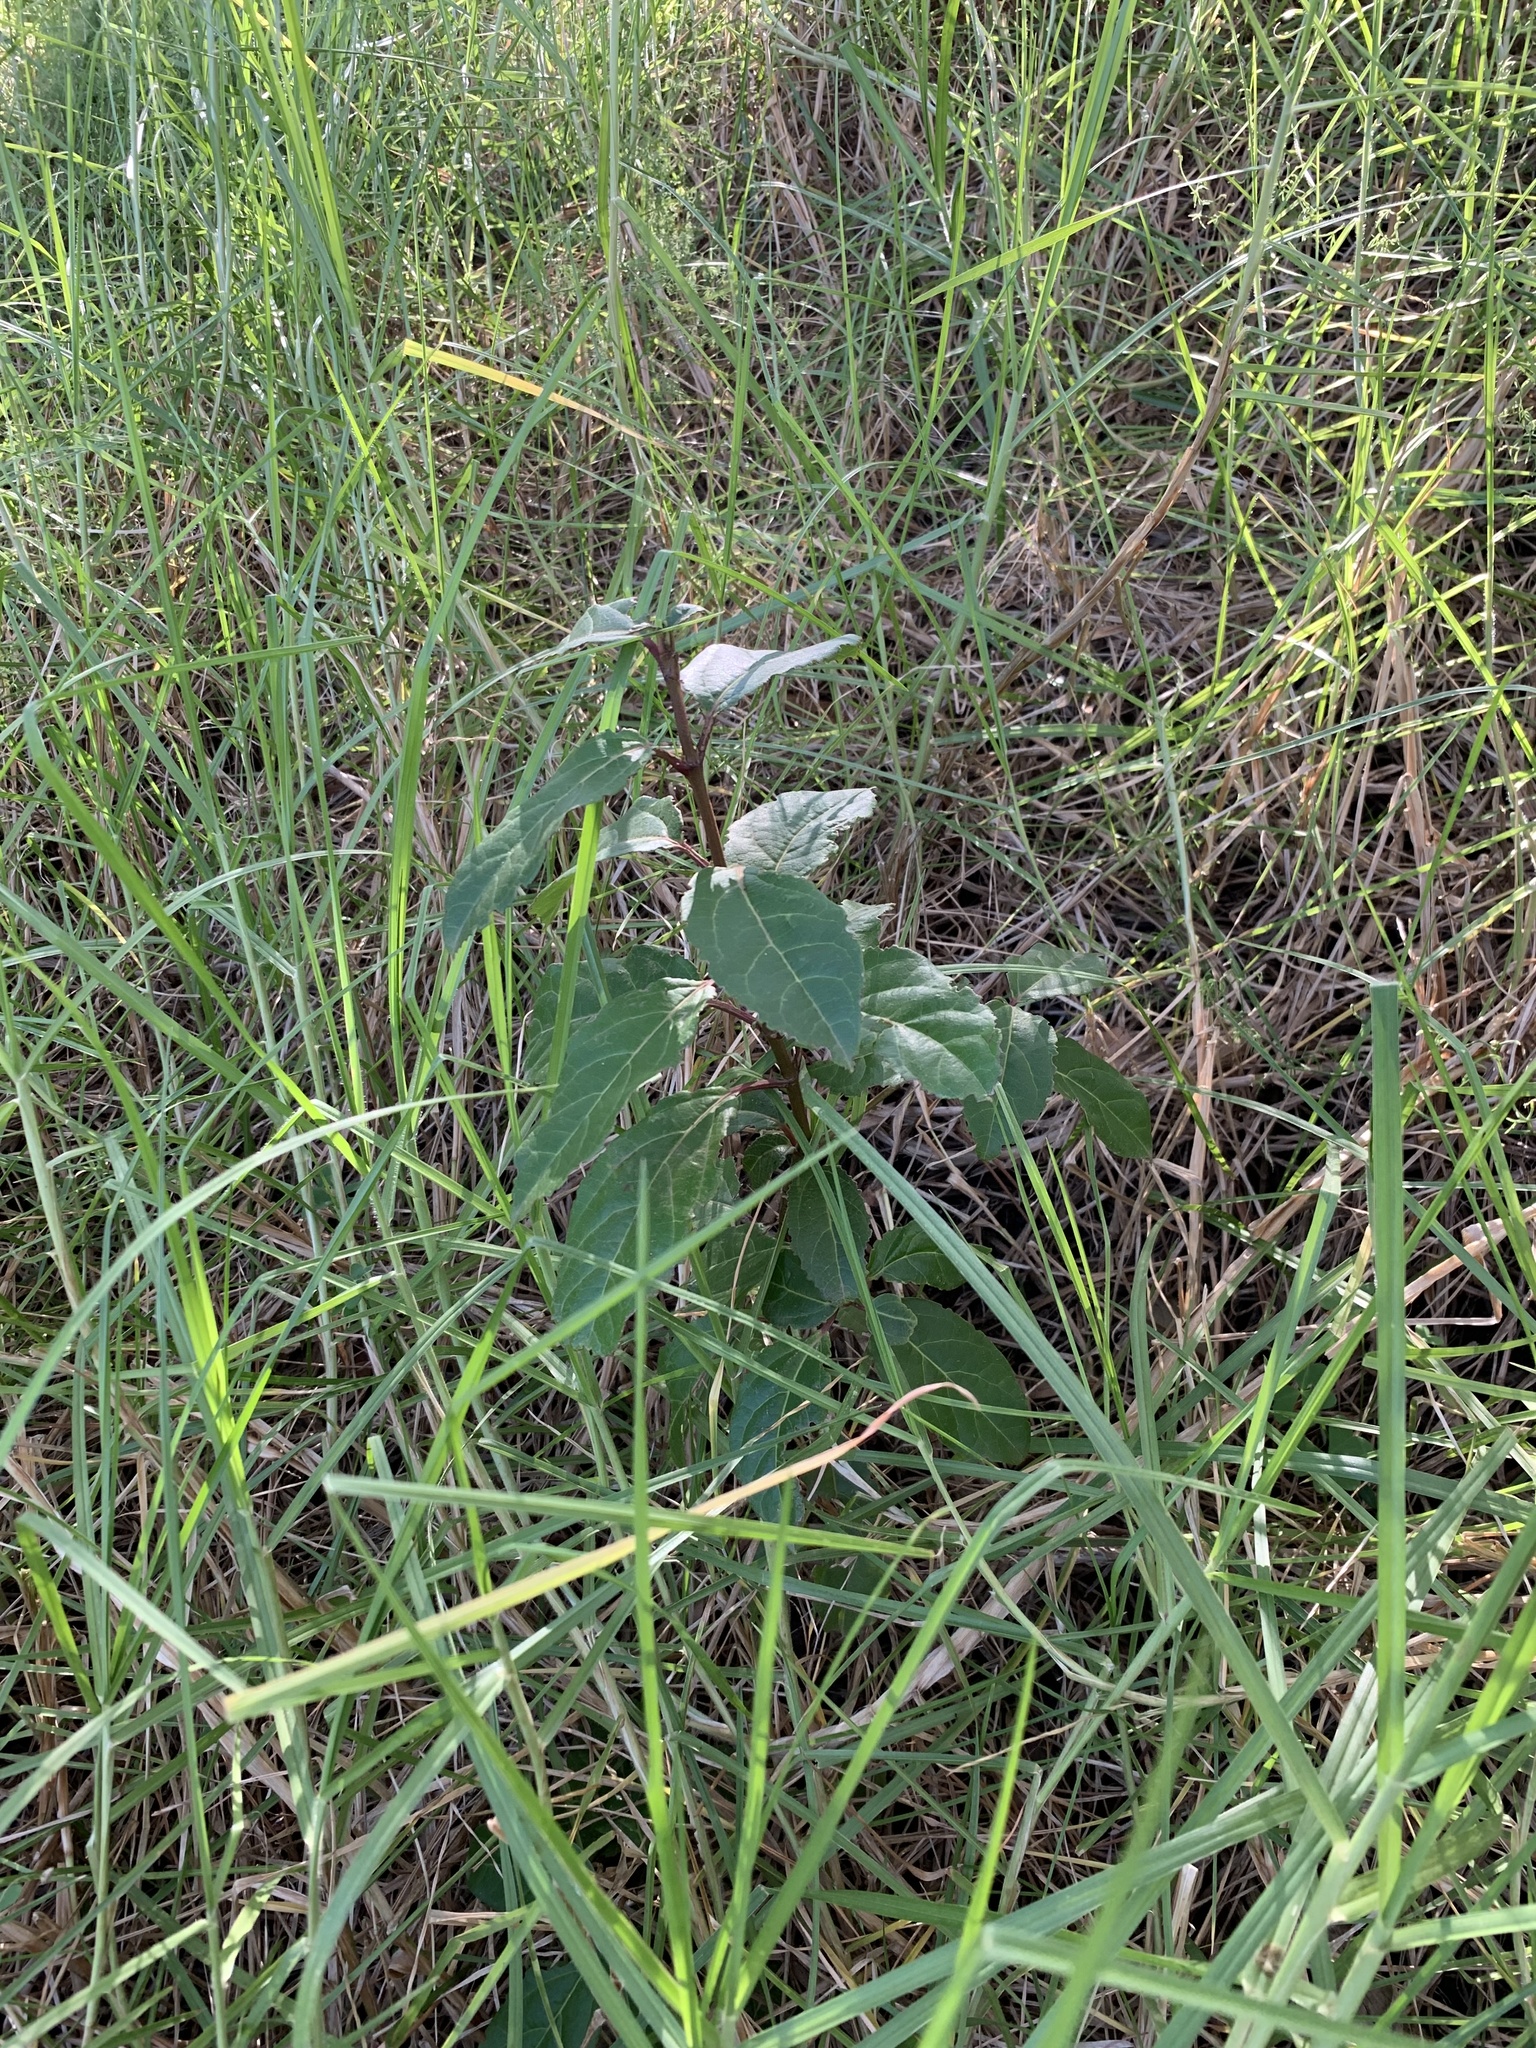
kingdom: Plantae
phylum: Tracheophyta
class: Magnoliopsida
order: Dipsacales
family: Viburnaceae
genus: Viburnum
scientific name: Viburnum tinus
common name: Laurustinus
